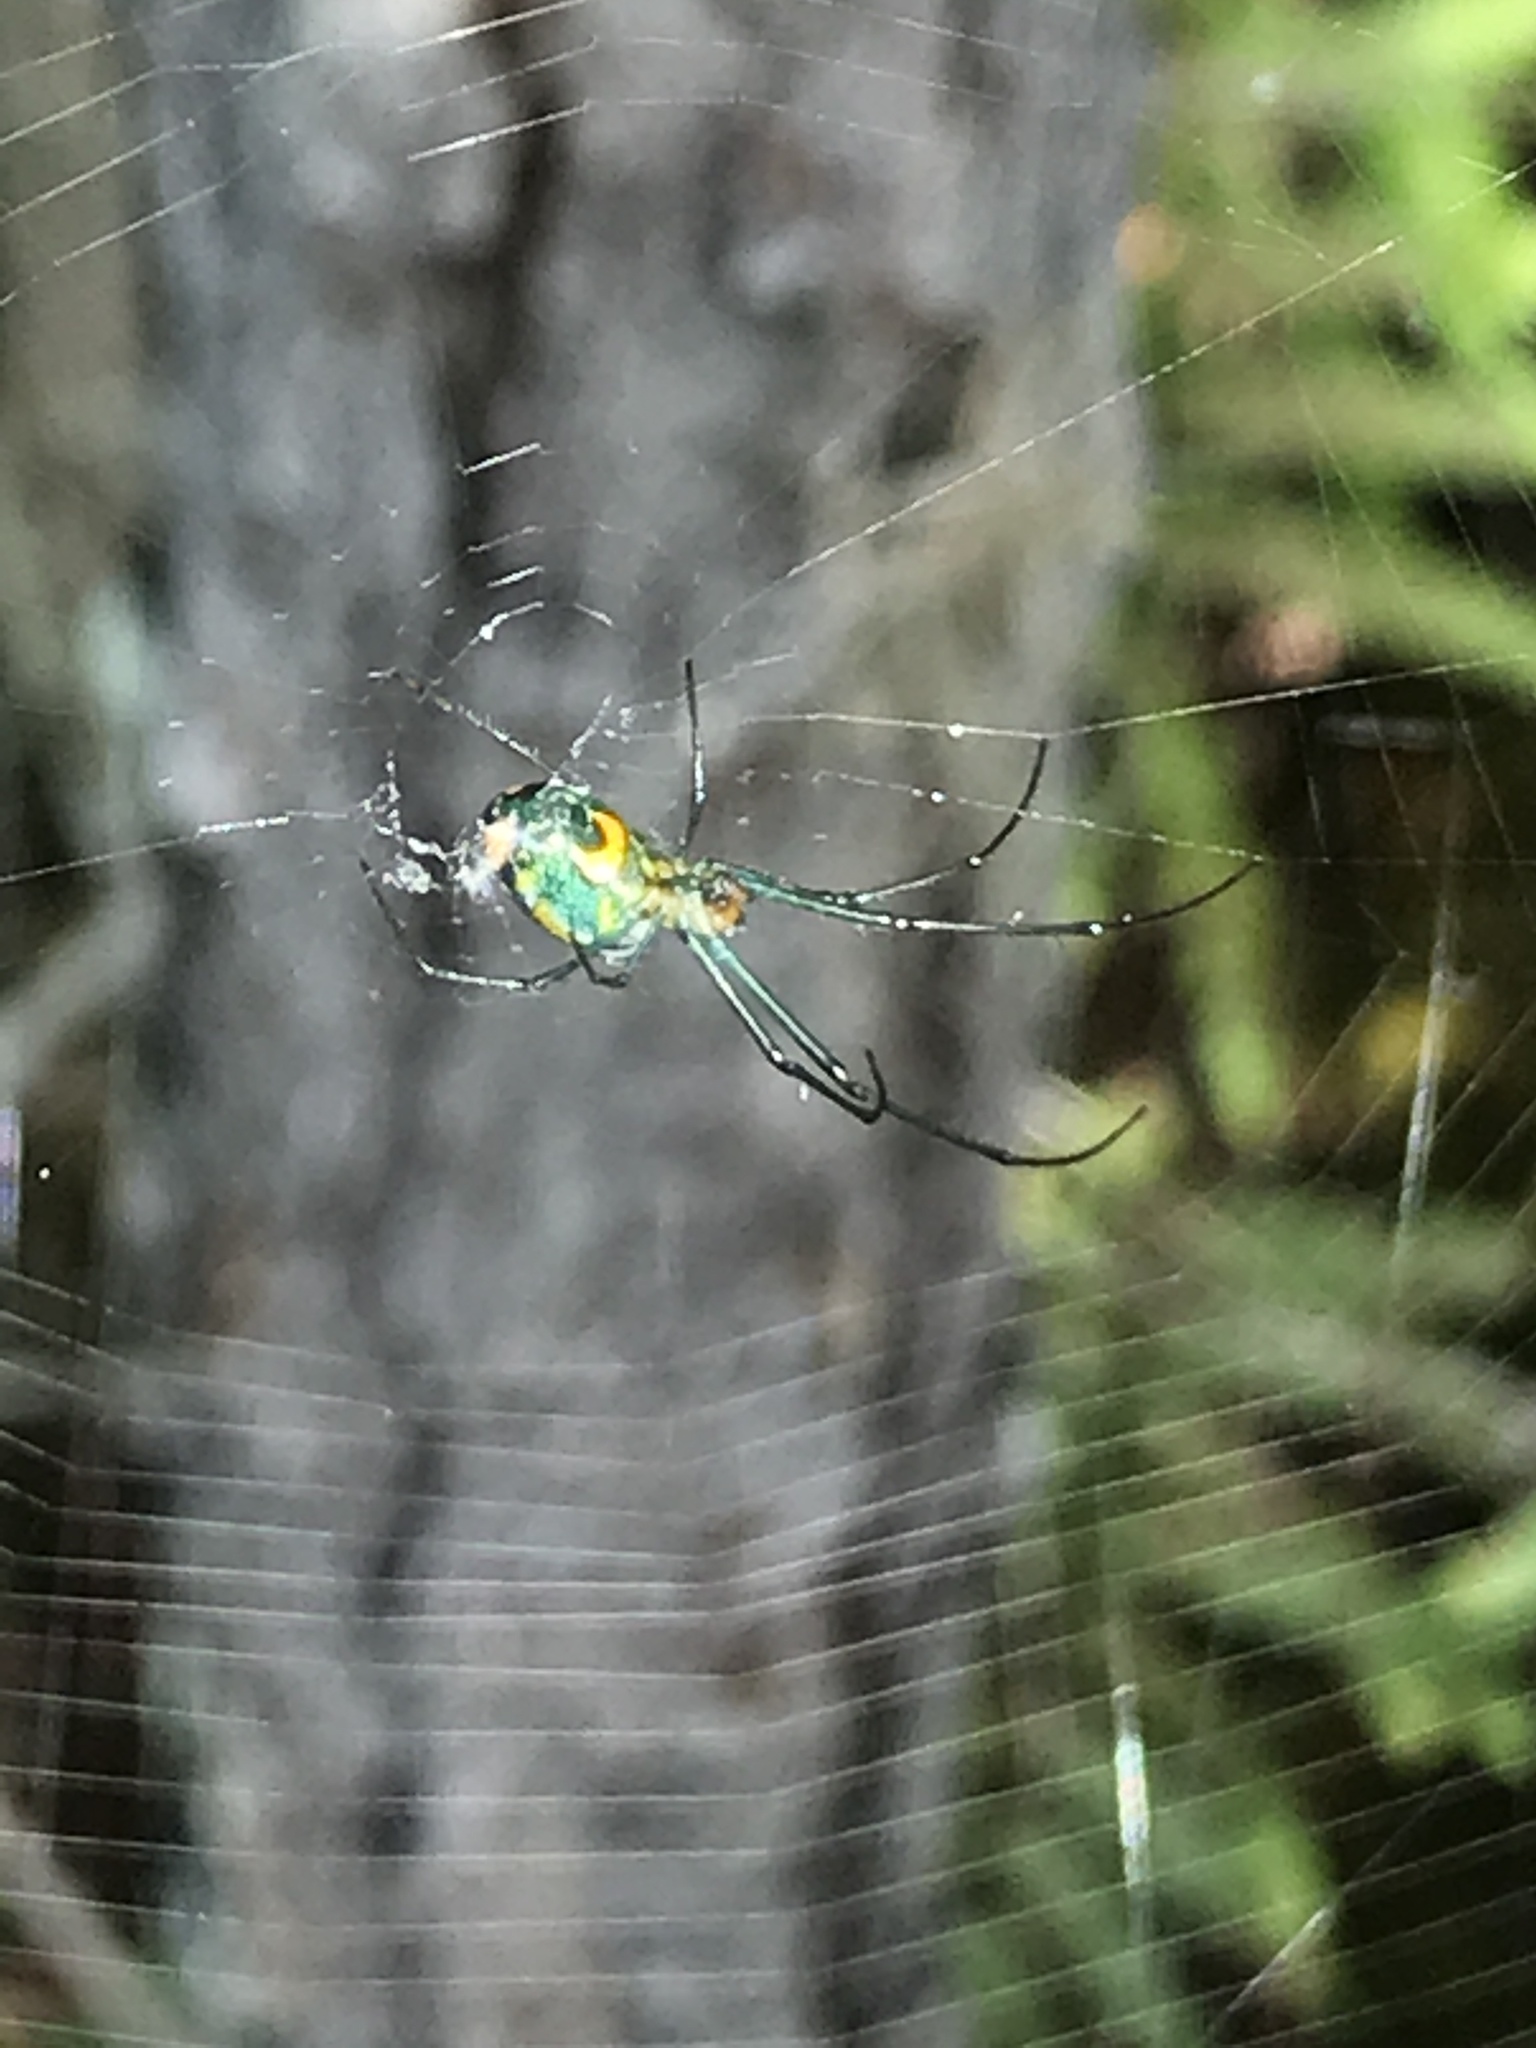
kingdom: Animalia
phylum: Arthropoda
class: Arachnida
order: Araneae
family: Tetragnathidae
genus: Leucauge
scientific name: Leucauge argyrobapta
